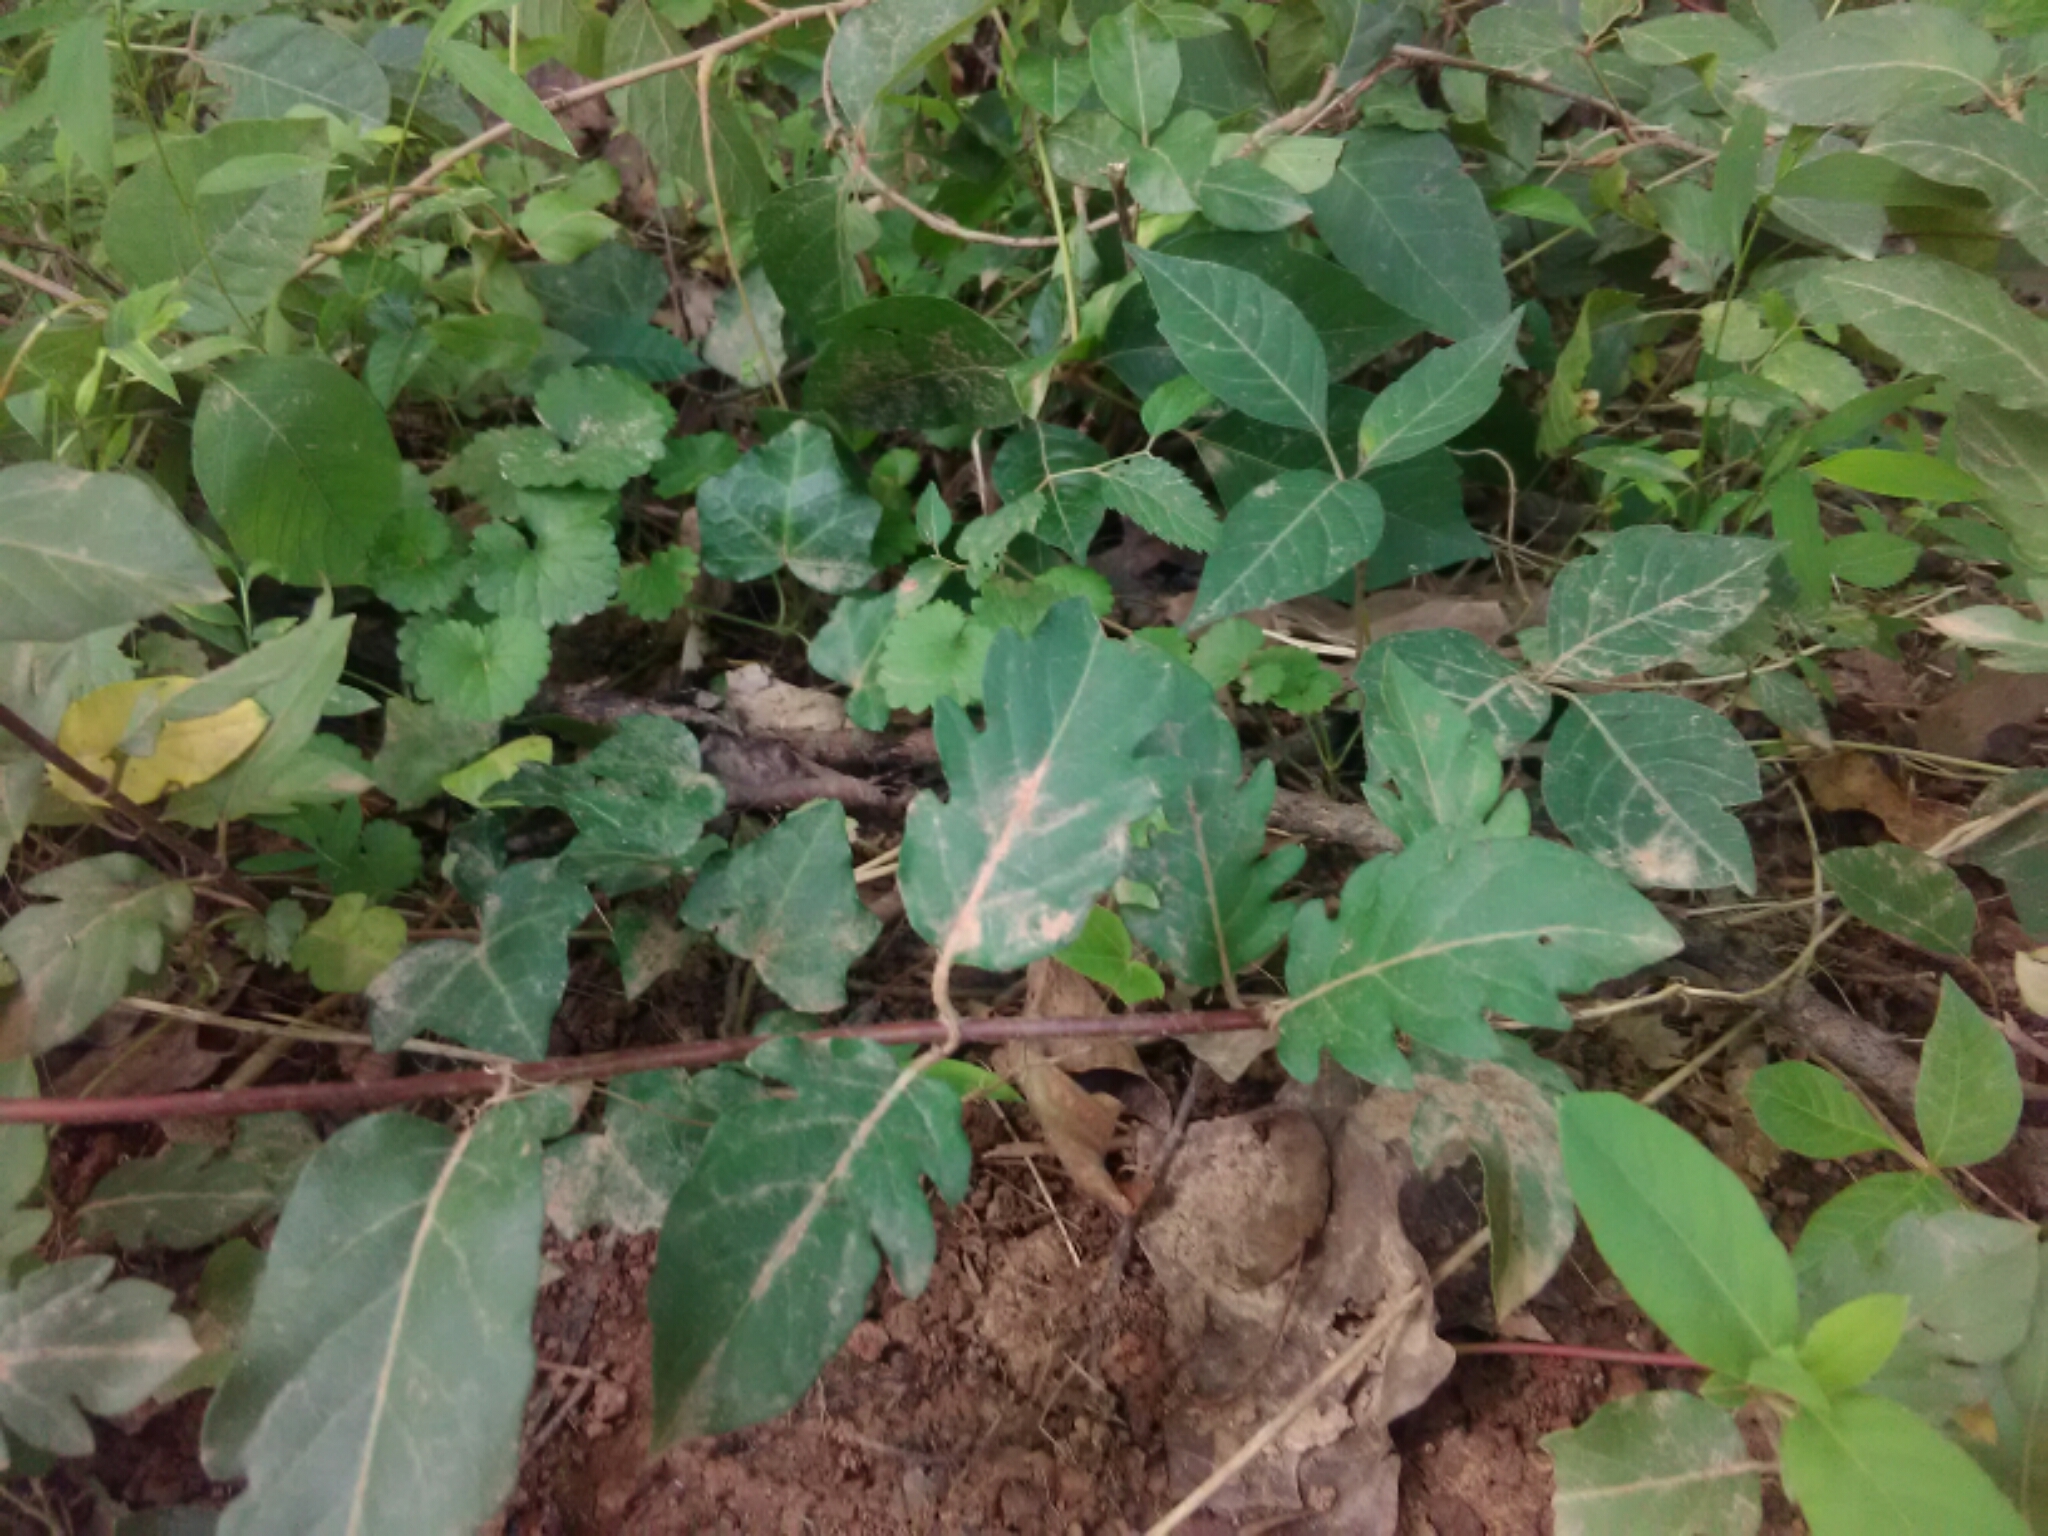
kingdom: Plantae
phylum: Tracheophyta
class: Magnoliopsida
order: Dipsacales
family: Caprifoliaceae
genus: Lonicera
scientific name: Lonicera japonica
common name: Japanese honeysuckle
